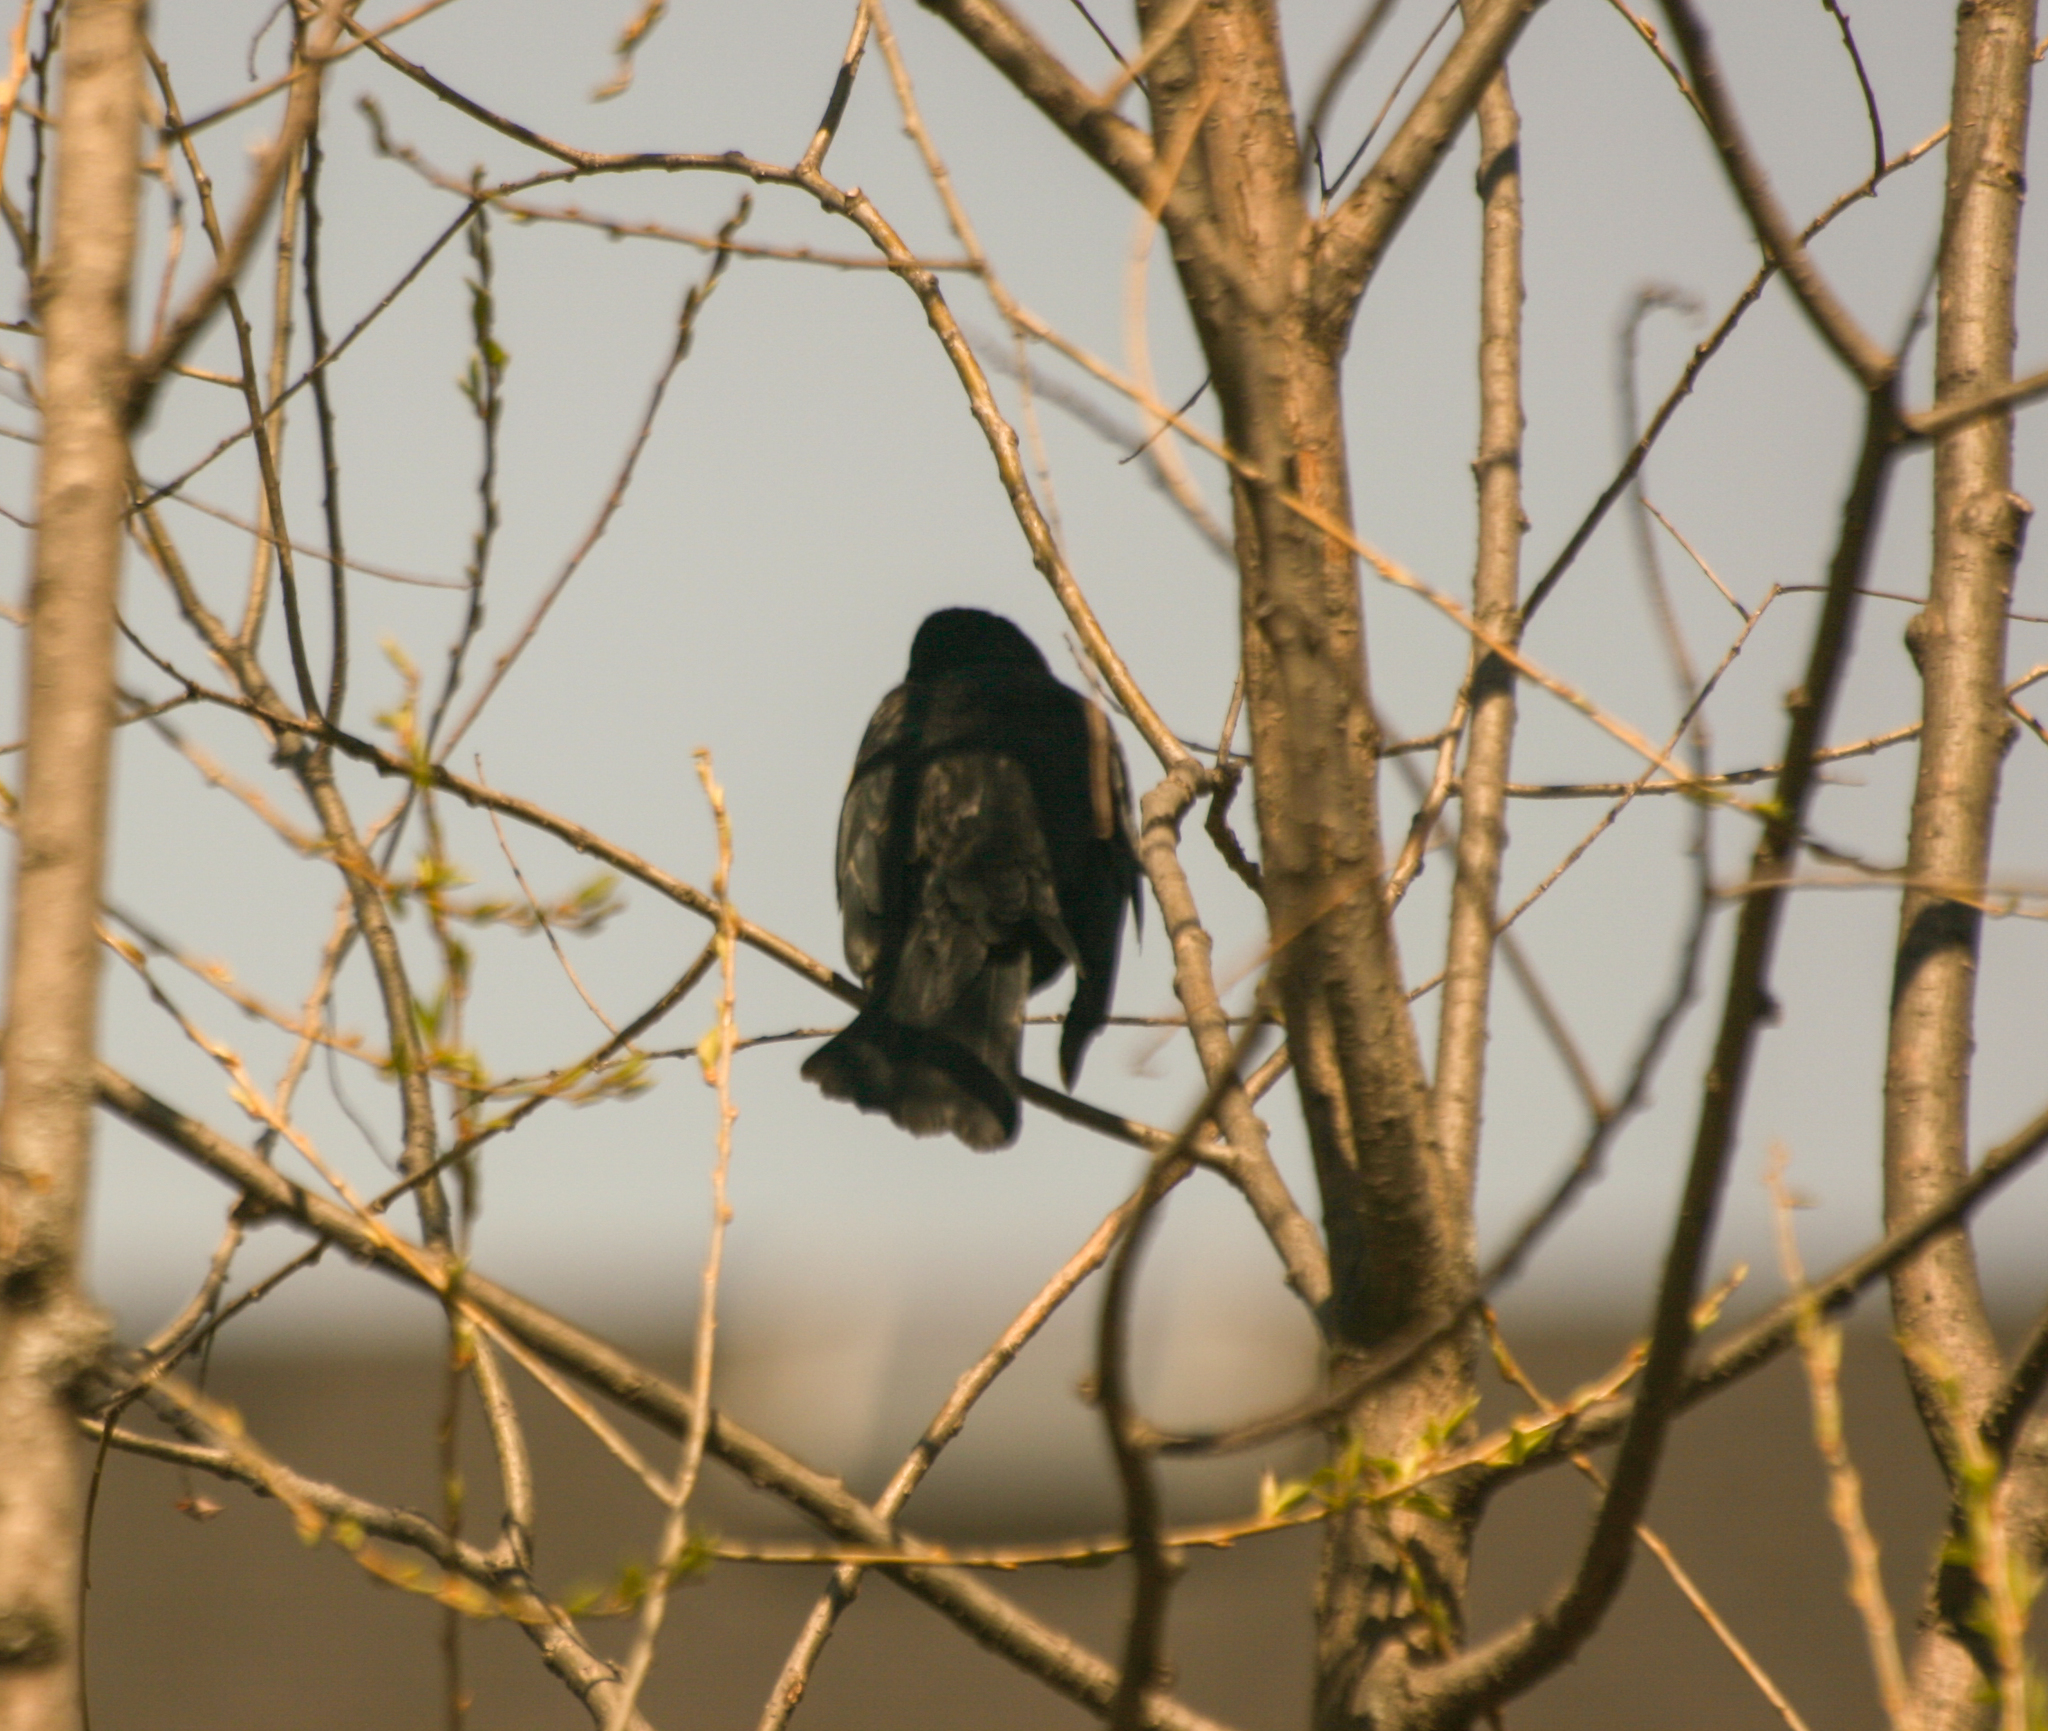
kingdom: Animalia
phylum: Chordata
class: Aves
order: Passeriformes
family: Icteridae
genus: Agelaius
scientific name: Agelaius phoeniceus
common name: Red-winged blackbird
